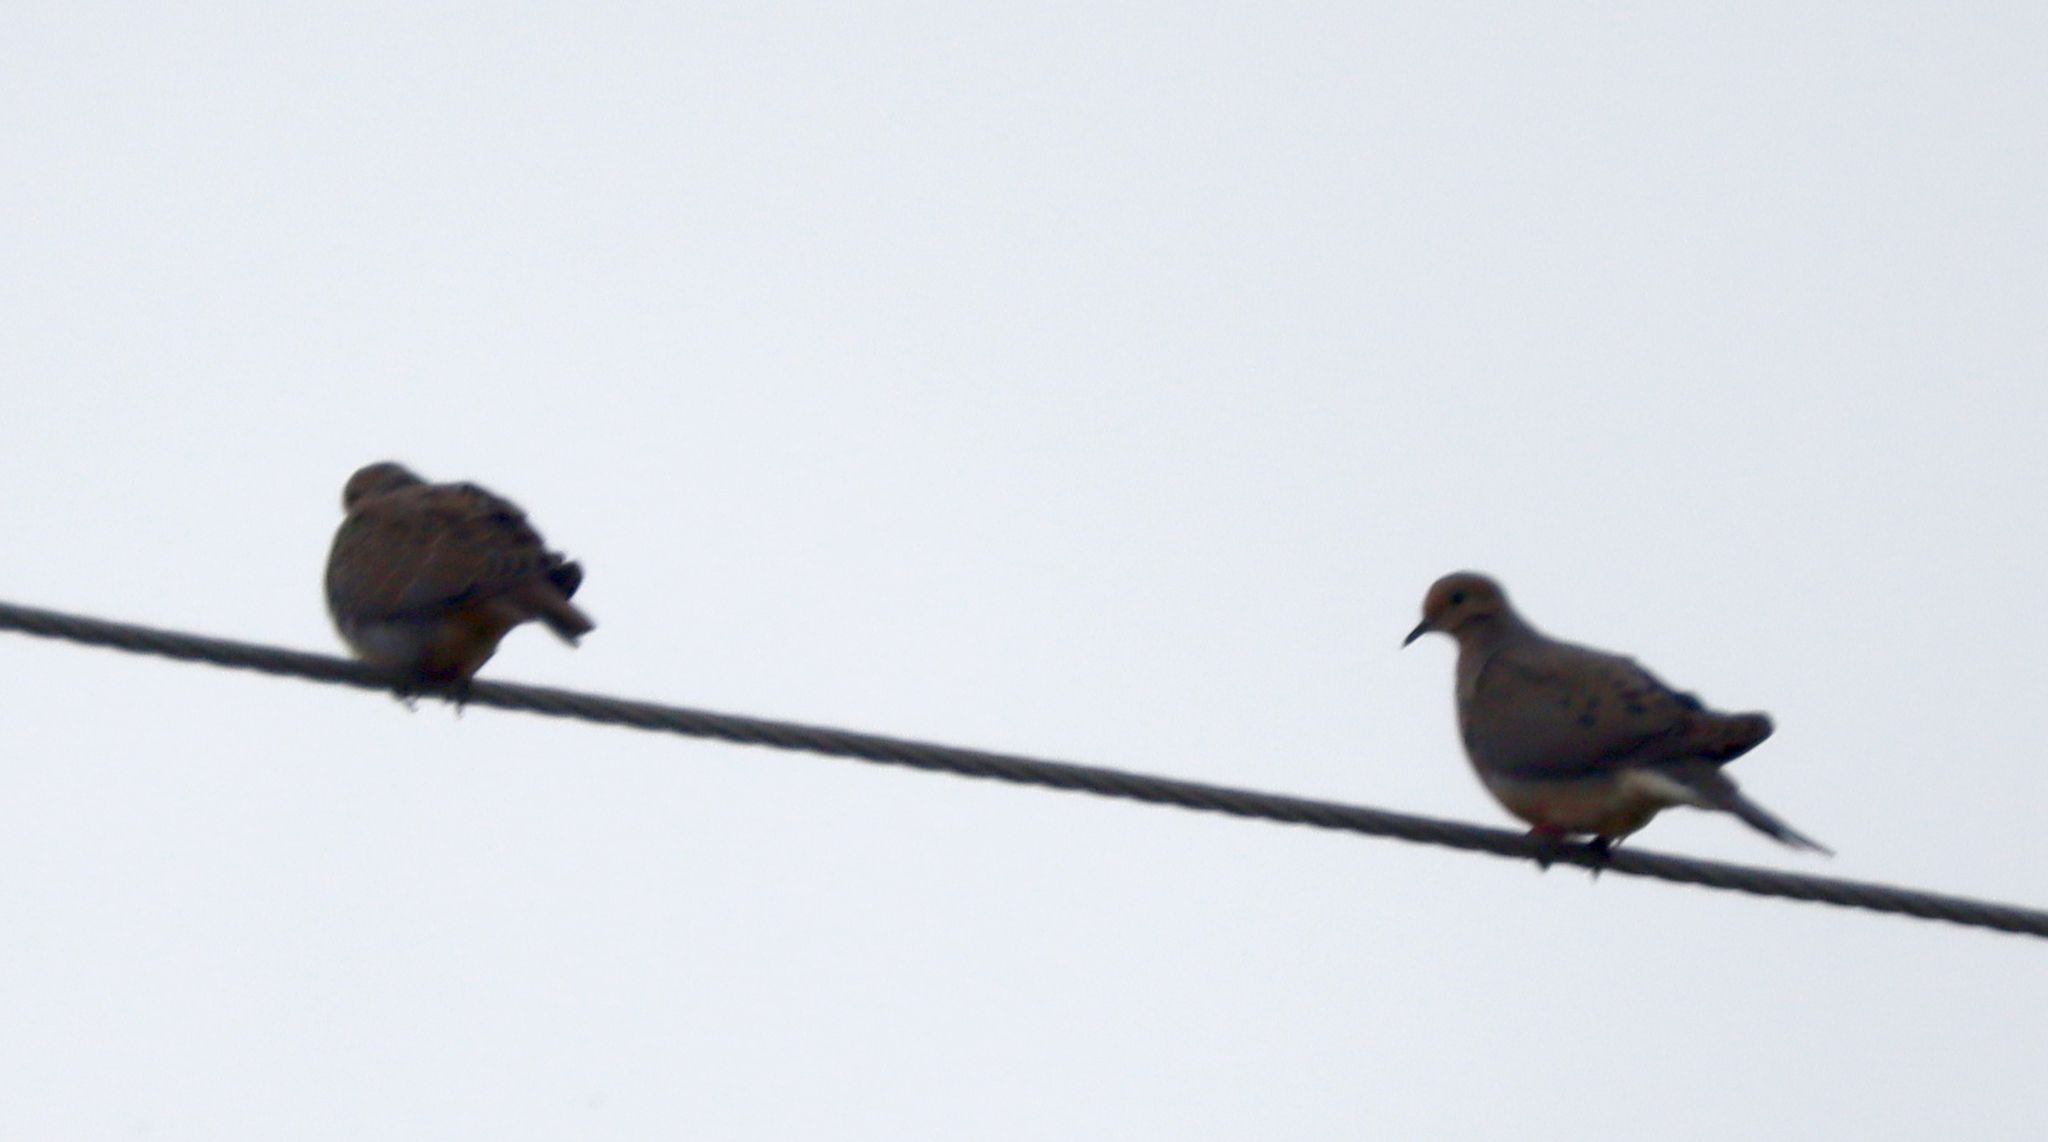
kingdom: Animalia
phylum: Chordata
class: Aves
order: Columbiformes
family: Columbidae
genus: Zenaida
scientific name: Zenaida macroura
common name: Mourning dove
